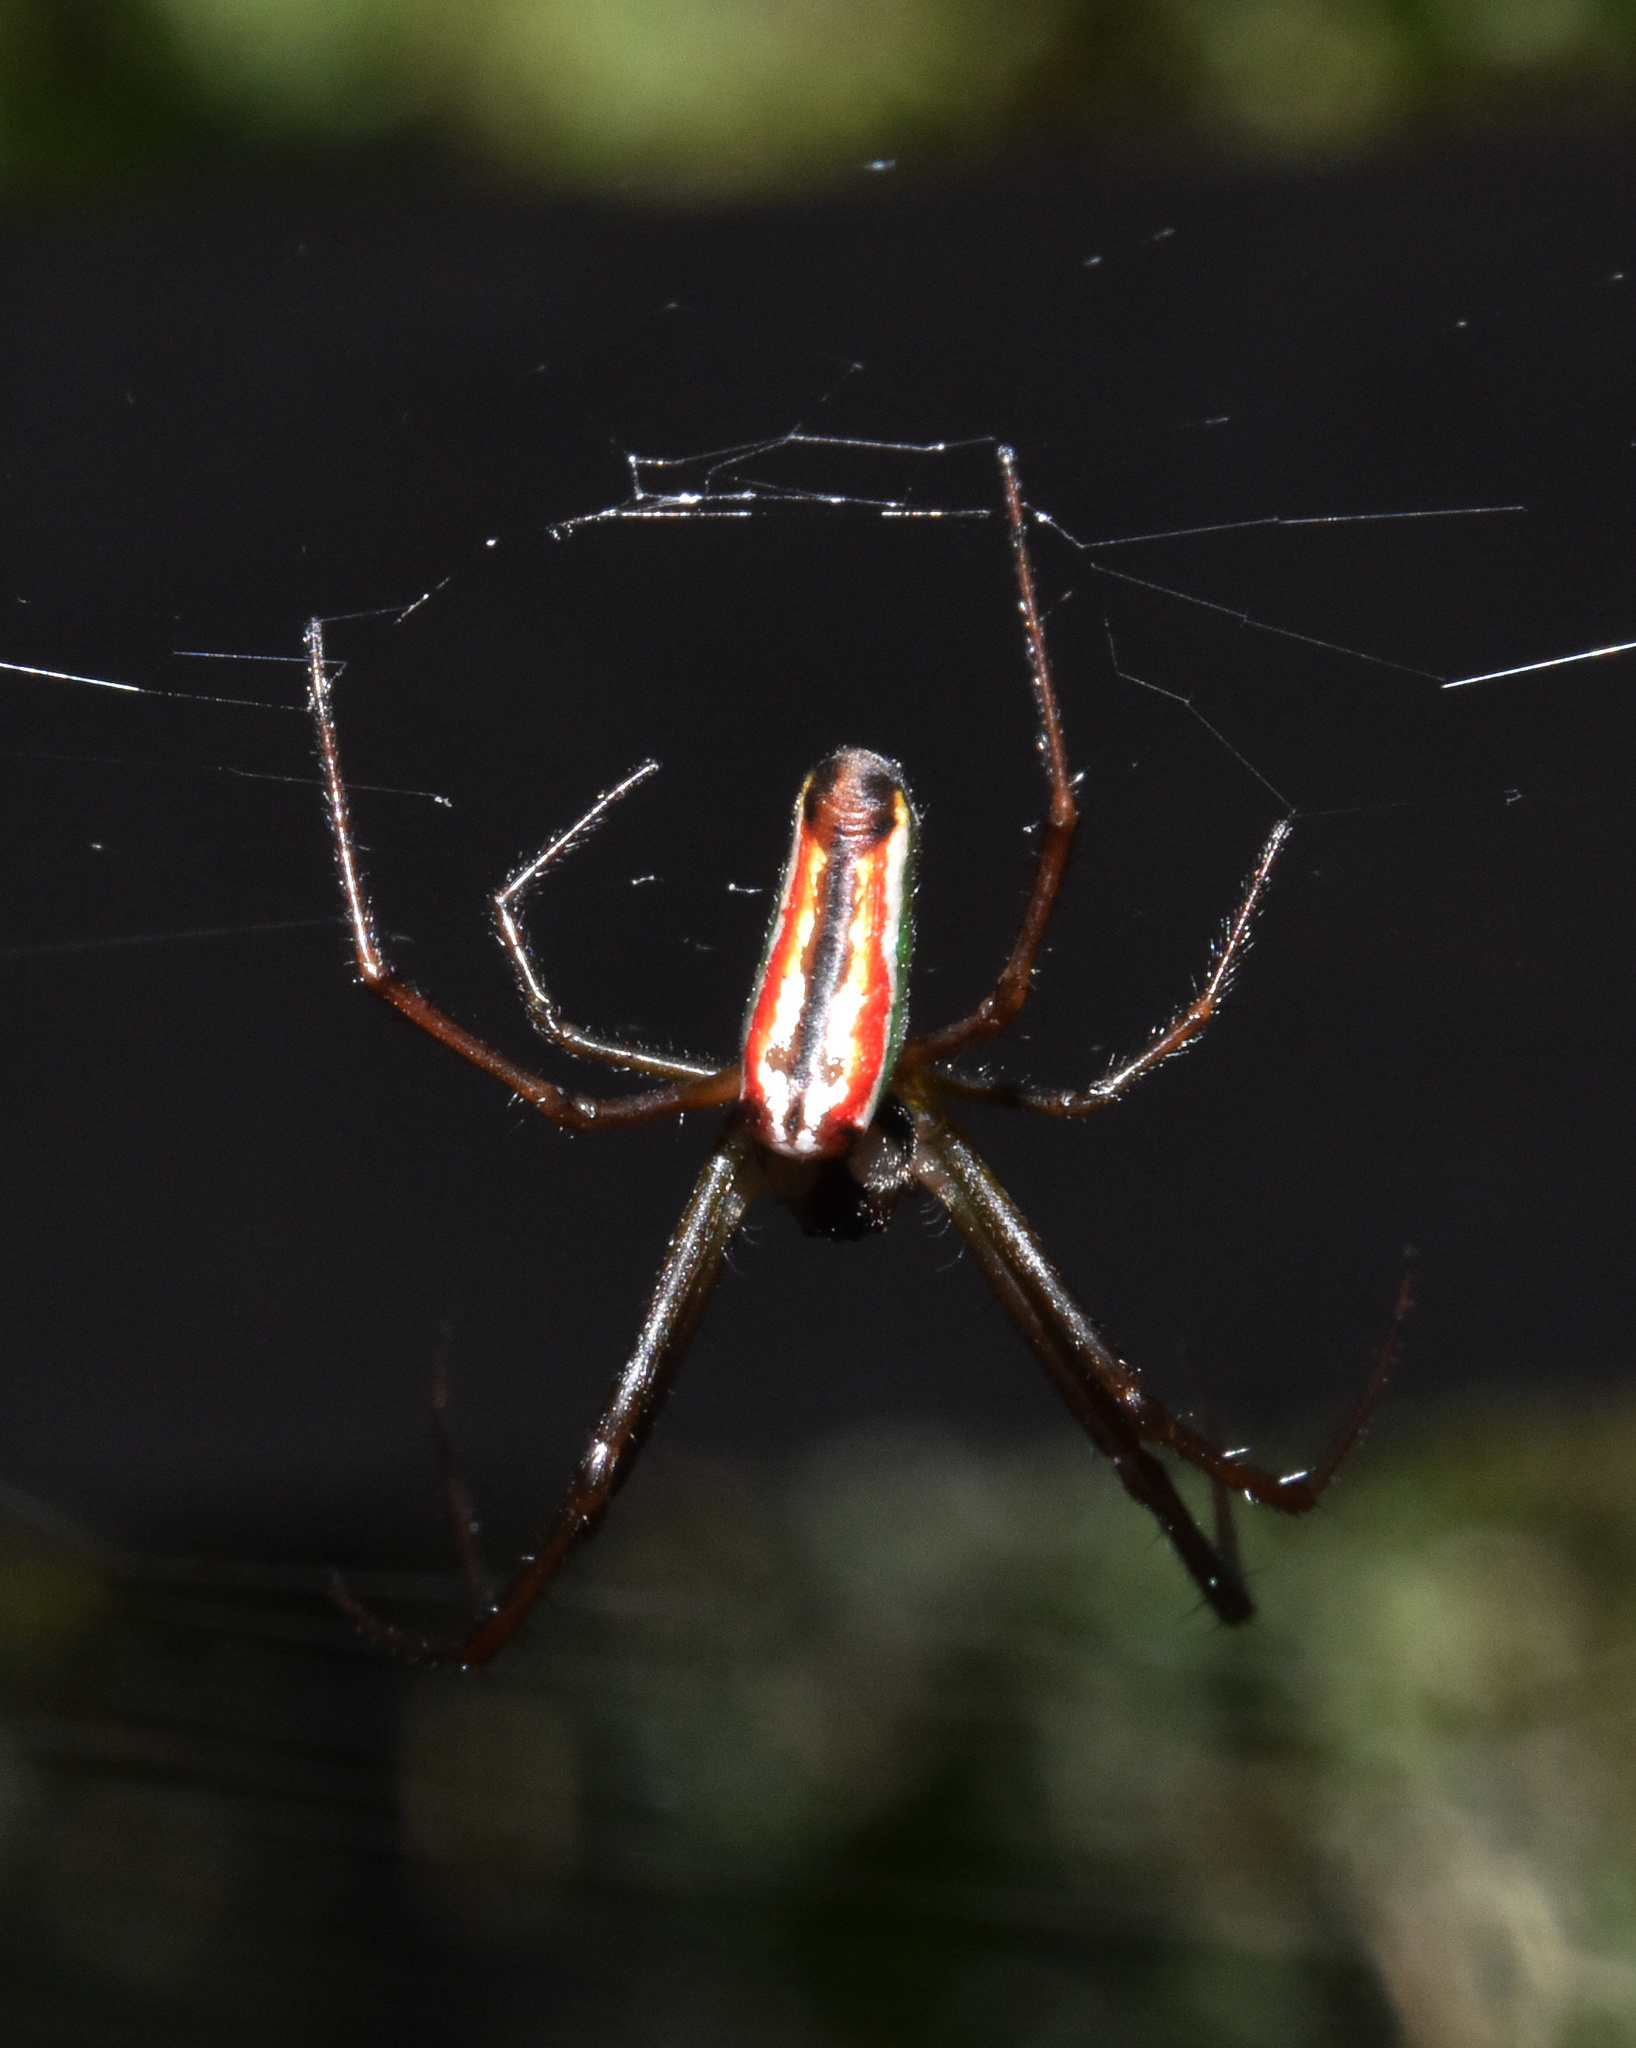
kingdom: Animalia
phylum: Arthropoda
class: Arachnida
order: Araneae
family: Tetragnathidae
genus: Leucauge
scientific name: Leucauge levanderi
